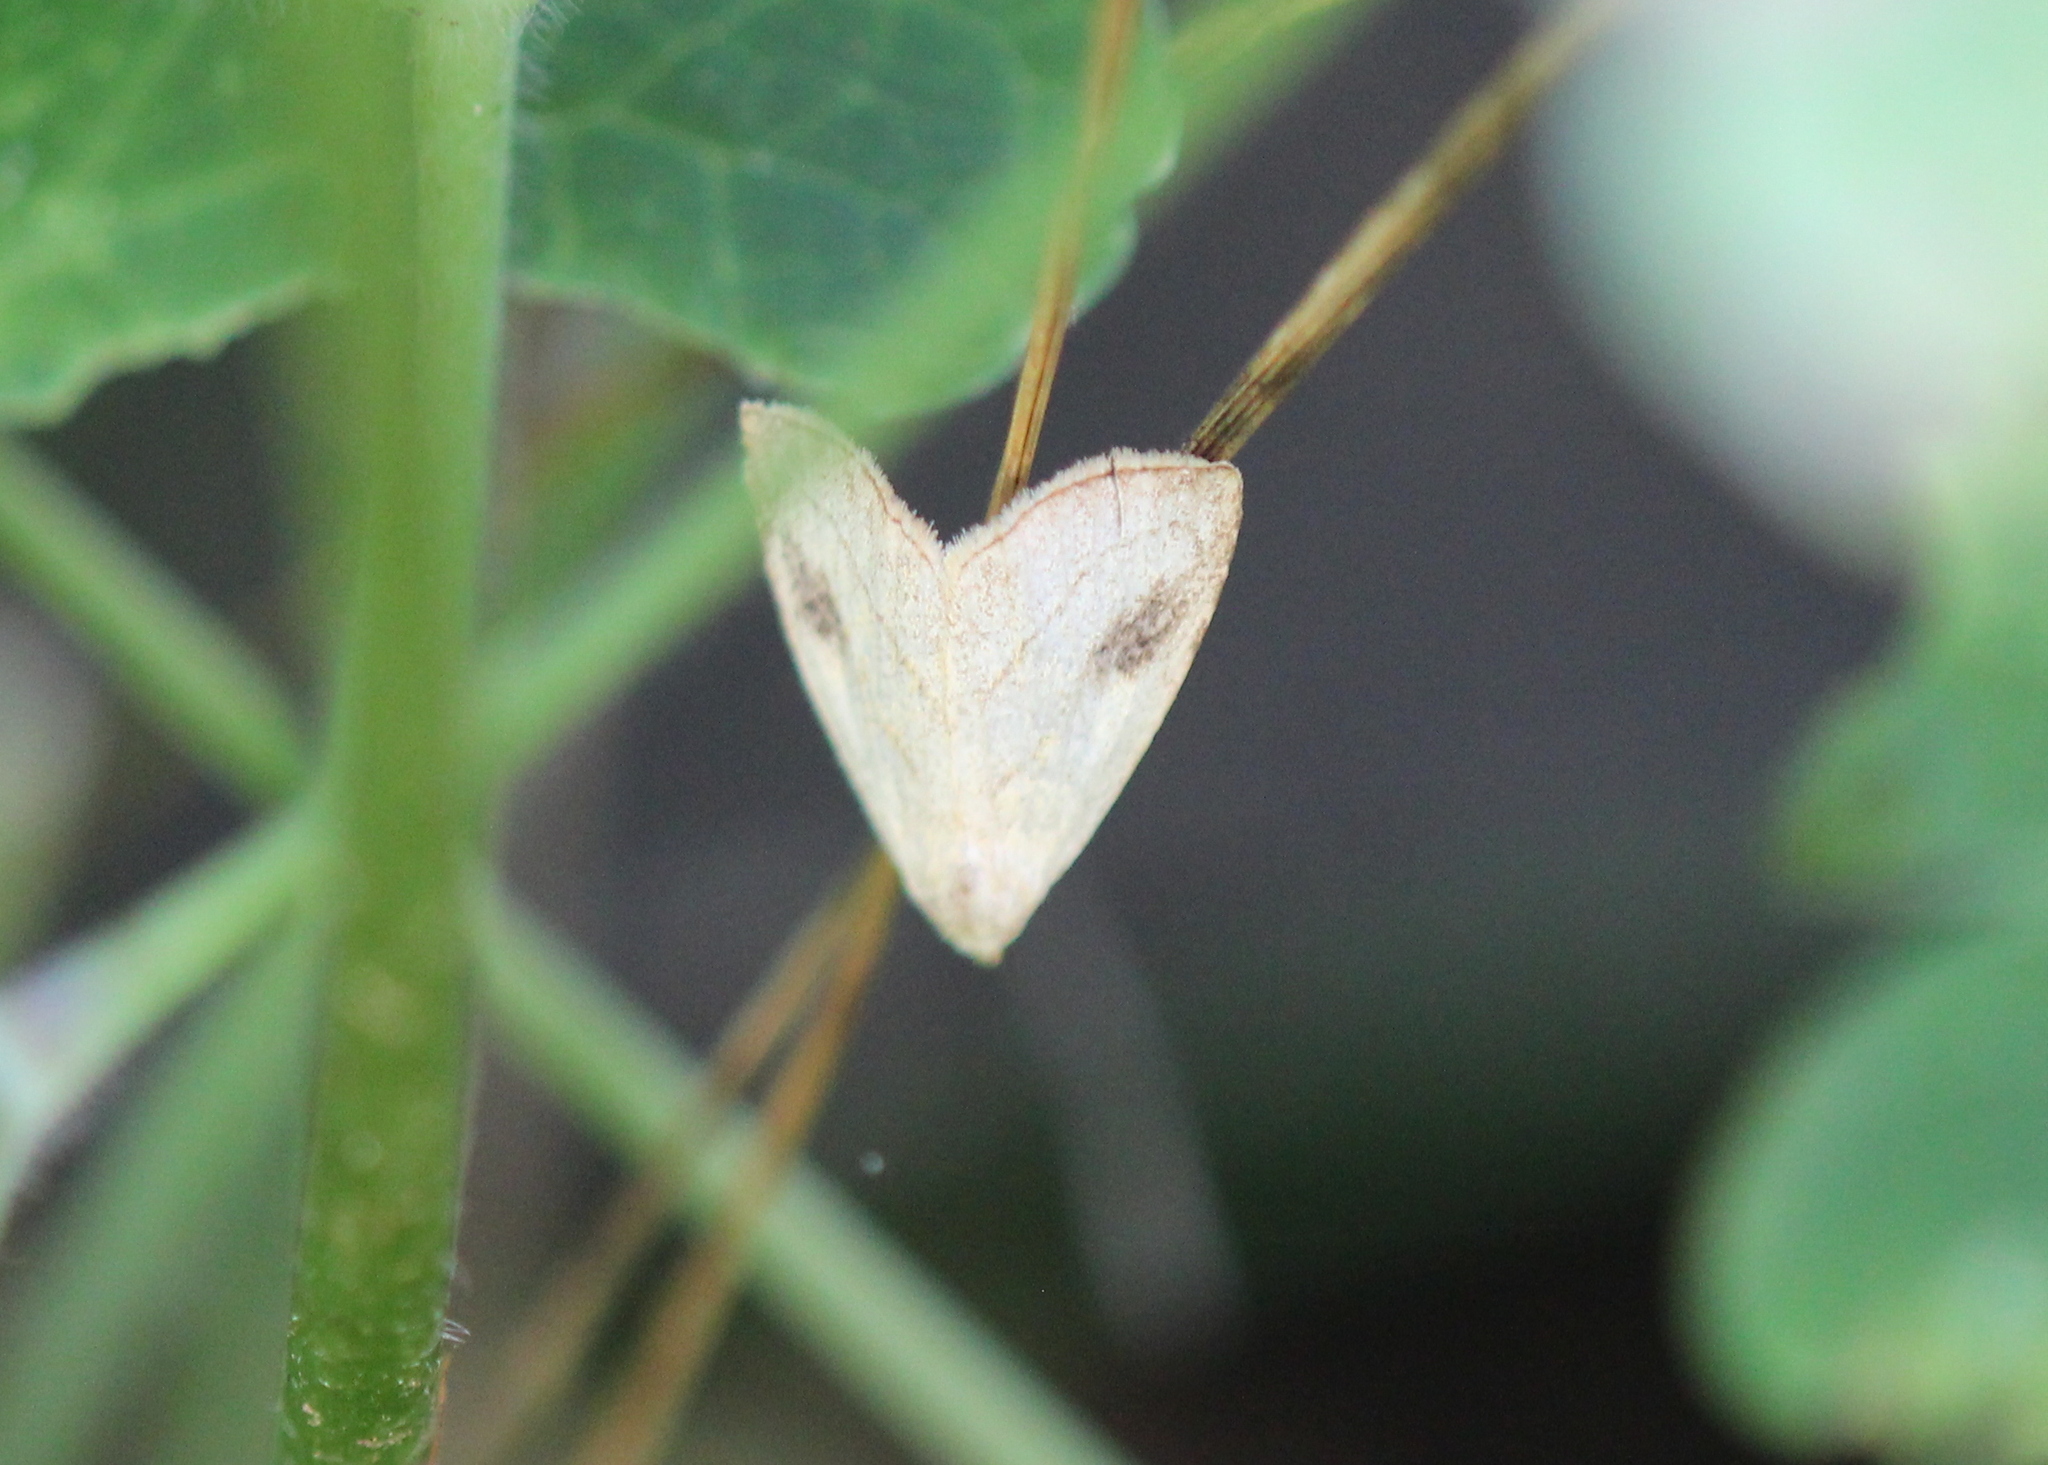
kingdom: Animalia
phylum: Arthropoda
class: Insecta
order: Lepidoptera
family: Erebidae
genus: Rivula
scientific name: Rivula propinqualis
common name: Spotted grass moth
